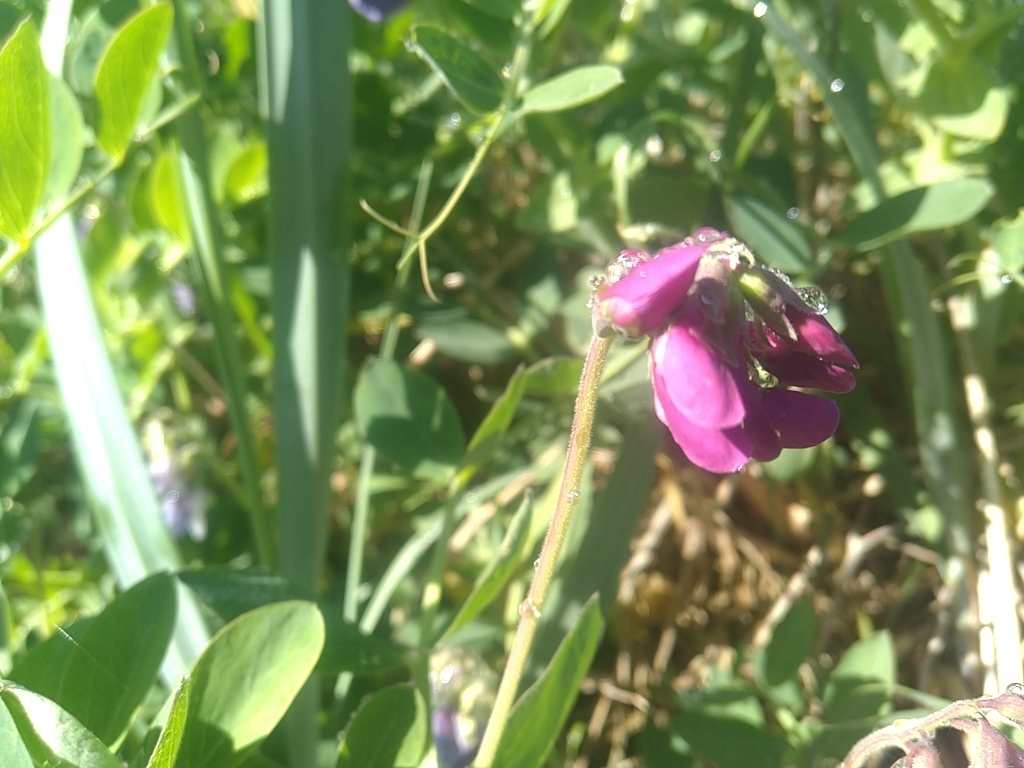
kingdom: Plantae
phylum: Tracheophyta
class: Magnoliopsida
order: Fabales
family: Fabaceae
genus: Lathyrus
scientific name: Lathyrus japonicus
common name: Sea pea
